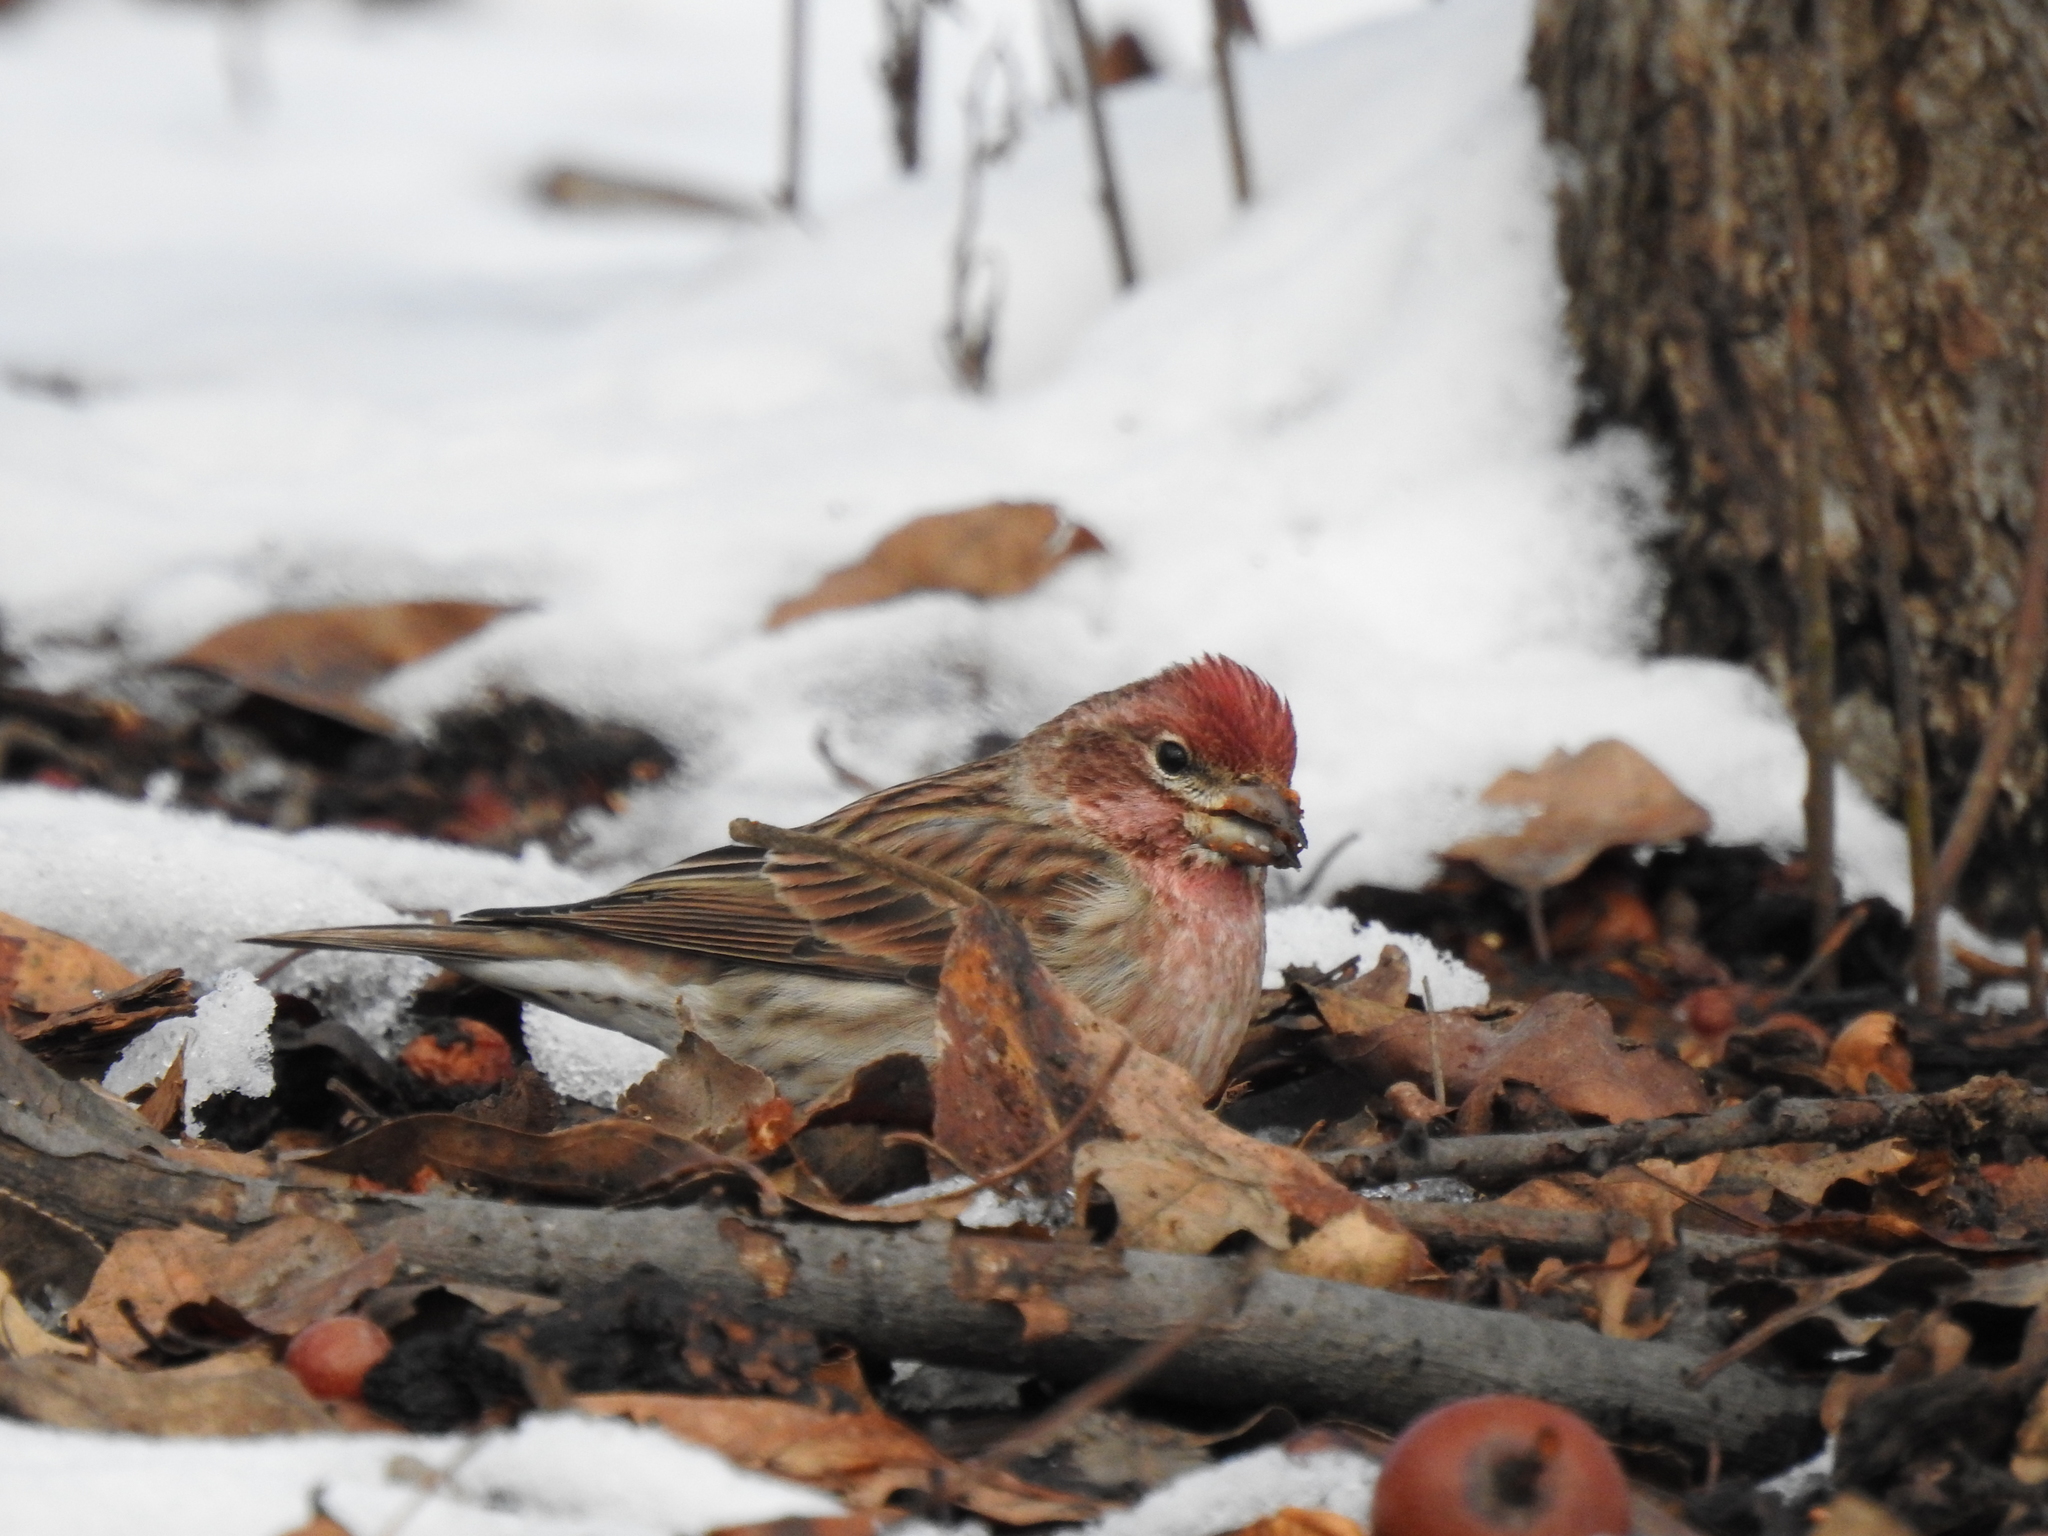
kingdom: Animalia
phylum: Chordata
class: Aves
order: Passeriformes
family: Fringillidae
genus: Haemorhous
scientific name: Haemorhous cassinii
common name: Cassin's finch
